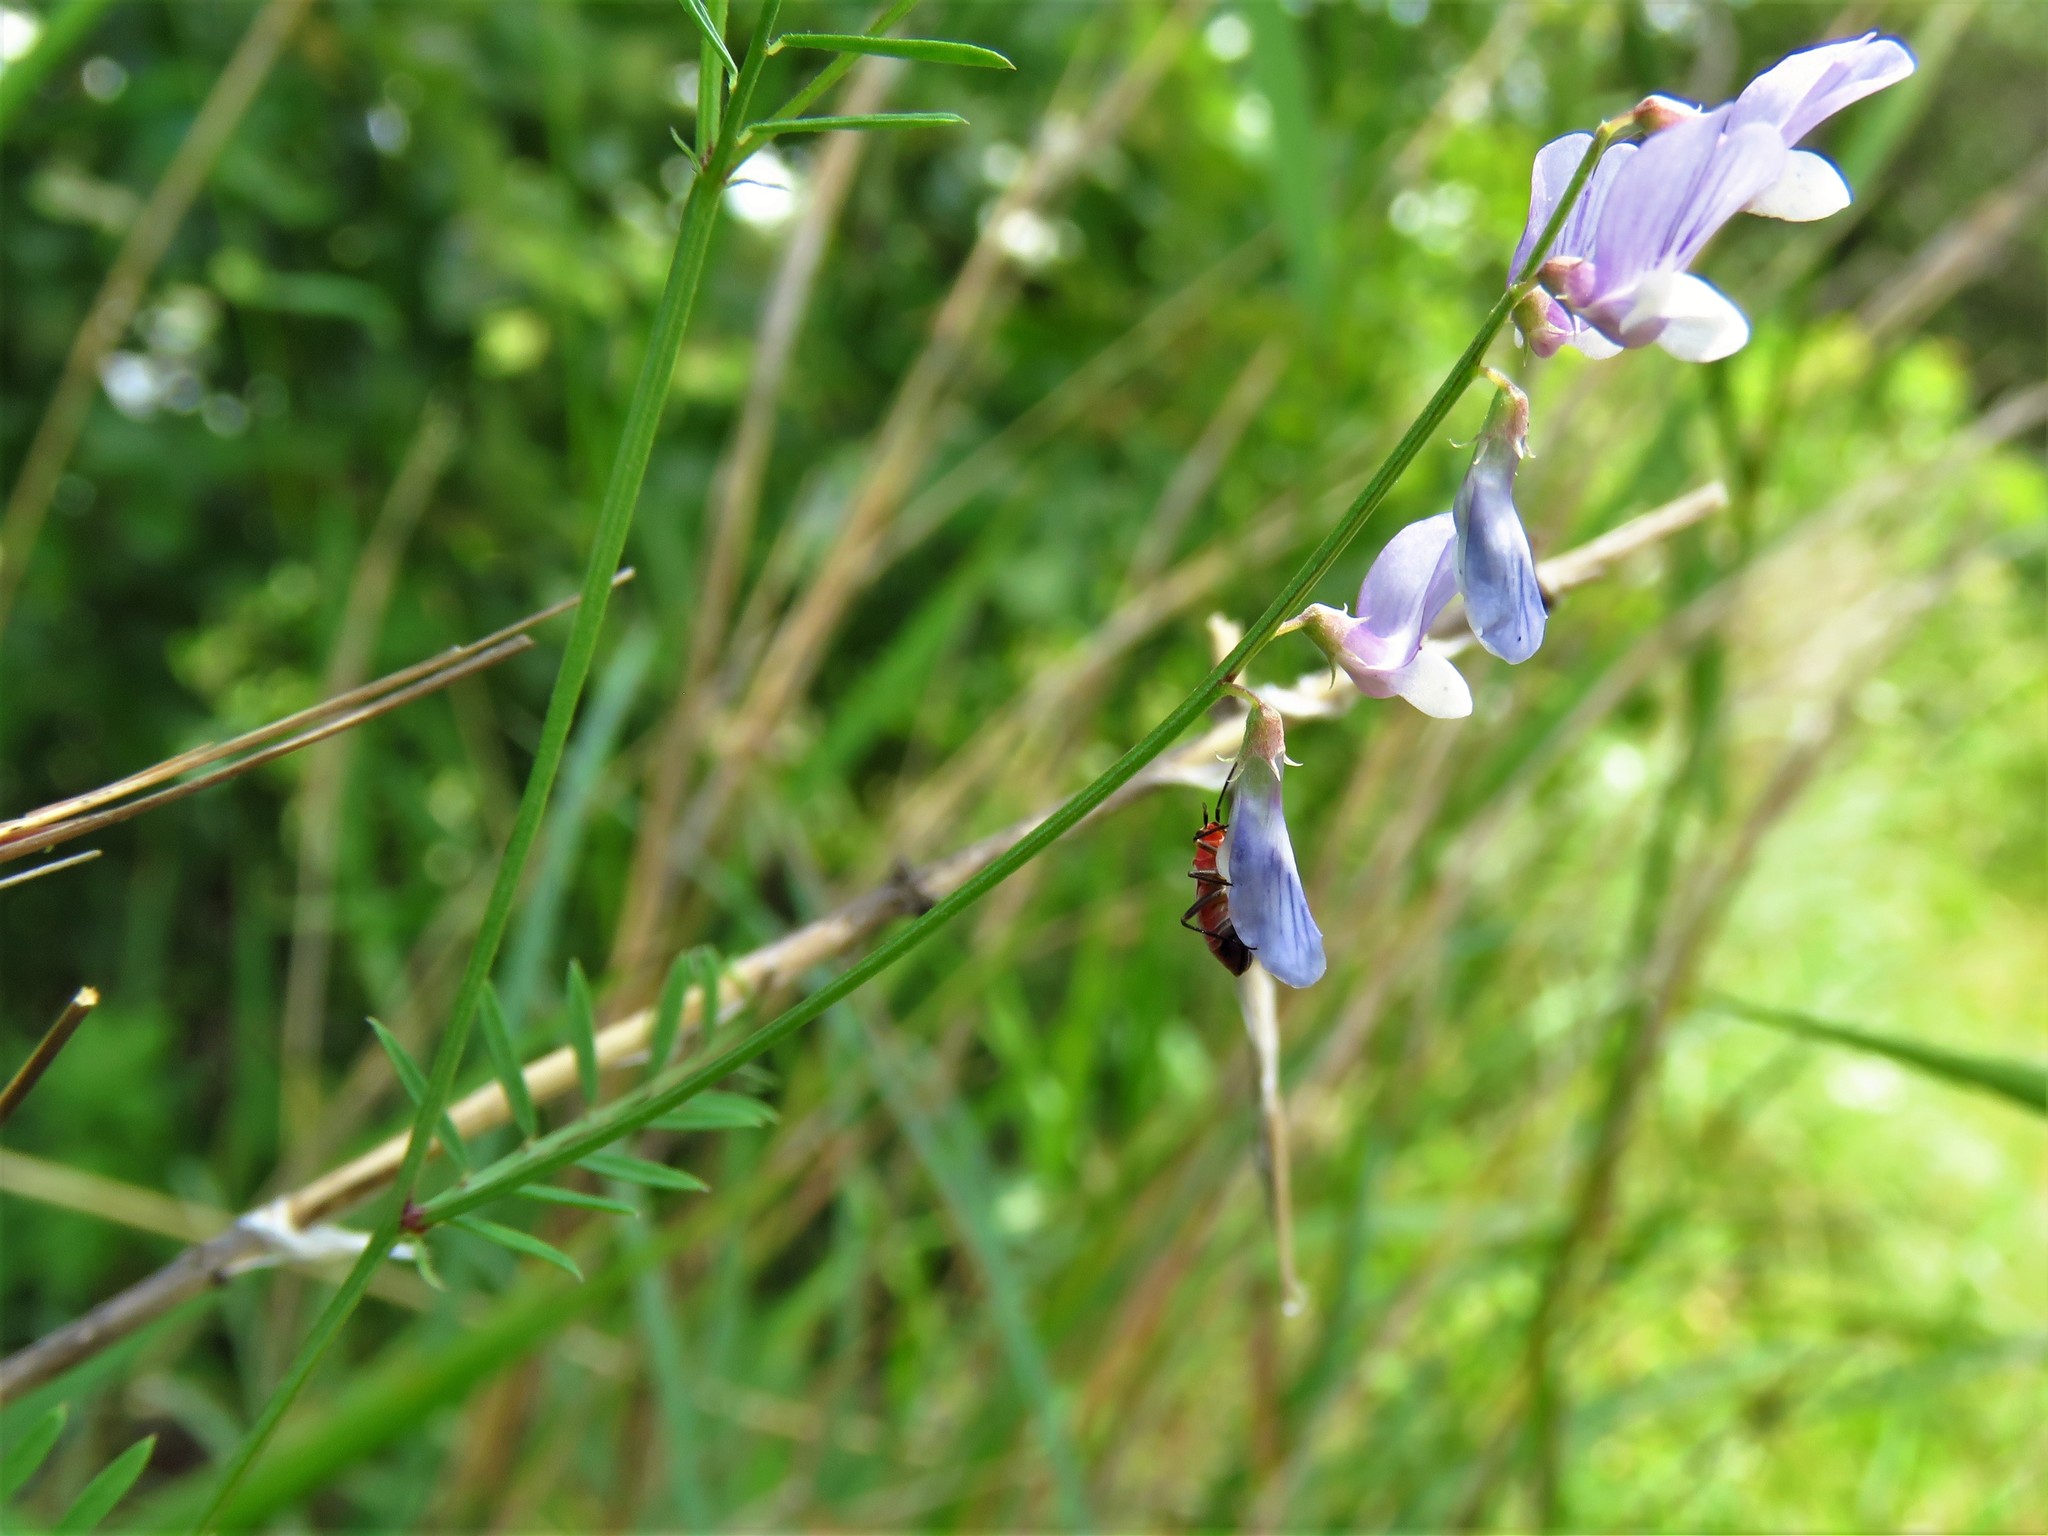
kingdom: Plantae
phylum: Tracheophyta
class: Magnoliopsida
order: Fabales
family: Fabaceae
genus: Vicia
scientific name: Vicia ludoviciana
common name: Louisiana vetch
